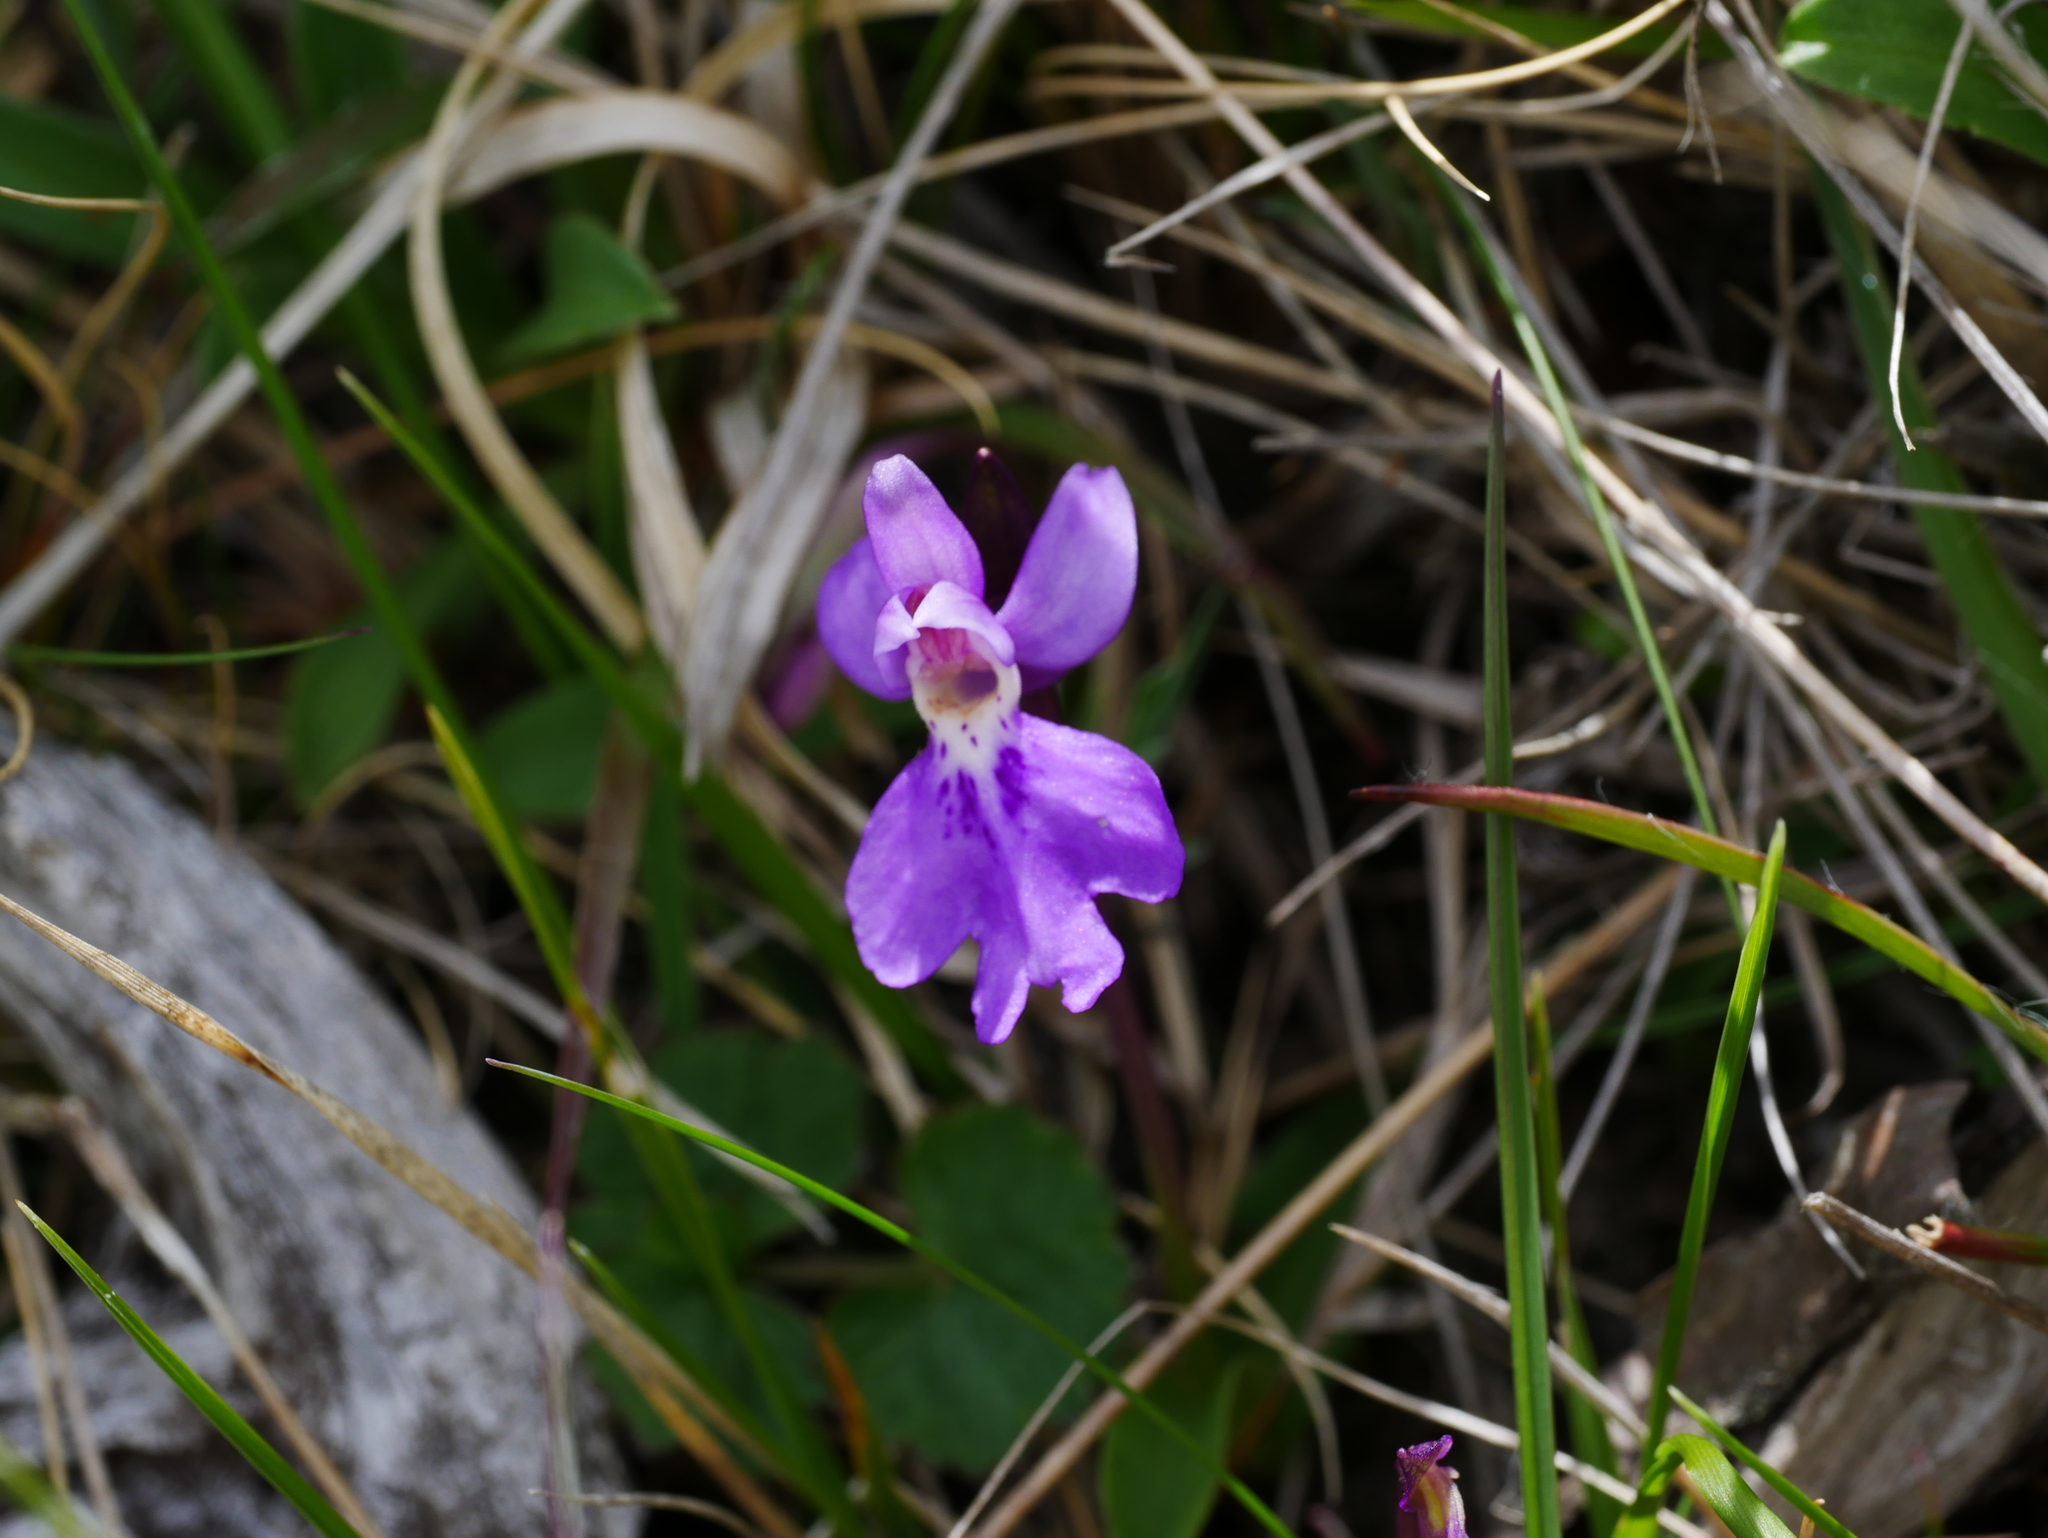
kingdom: Plantae
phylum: Tracheophyta
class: Liliopsida
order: Asparagales
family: Orchidaceae
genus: Hemipilia
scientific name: Hemipilia kiraishiensis
